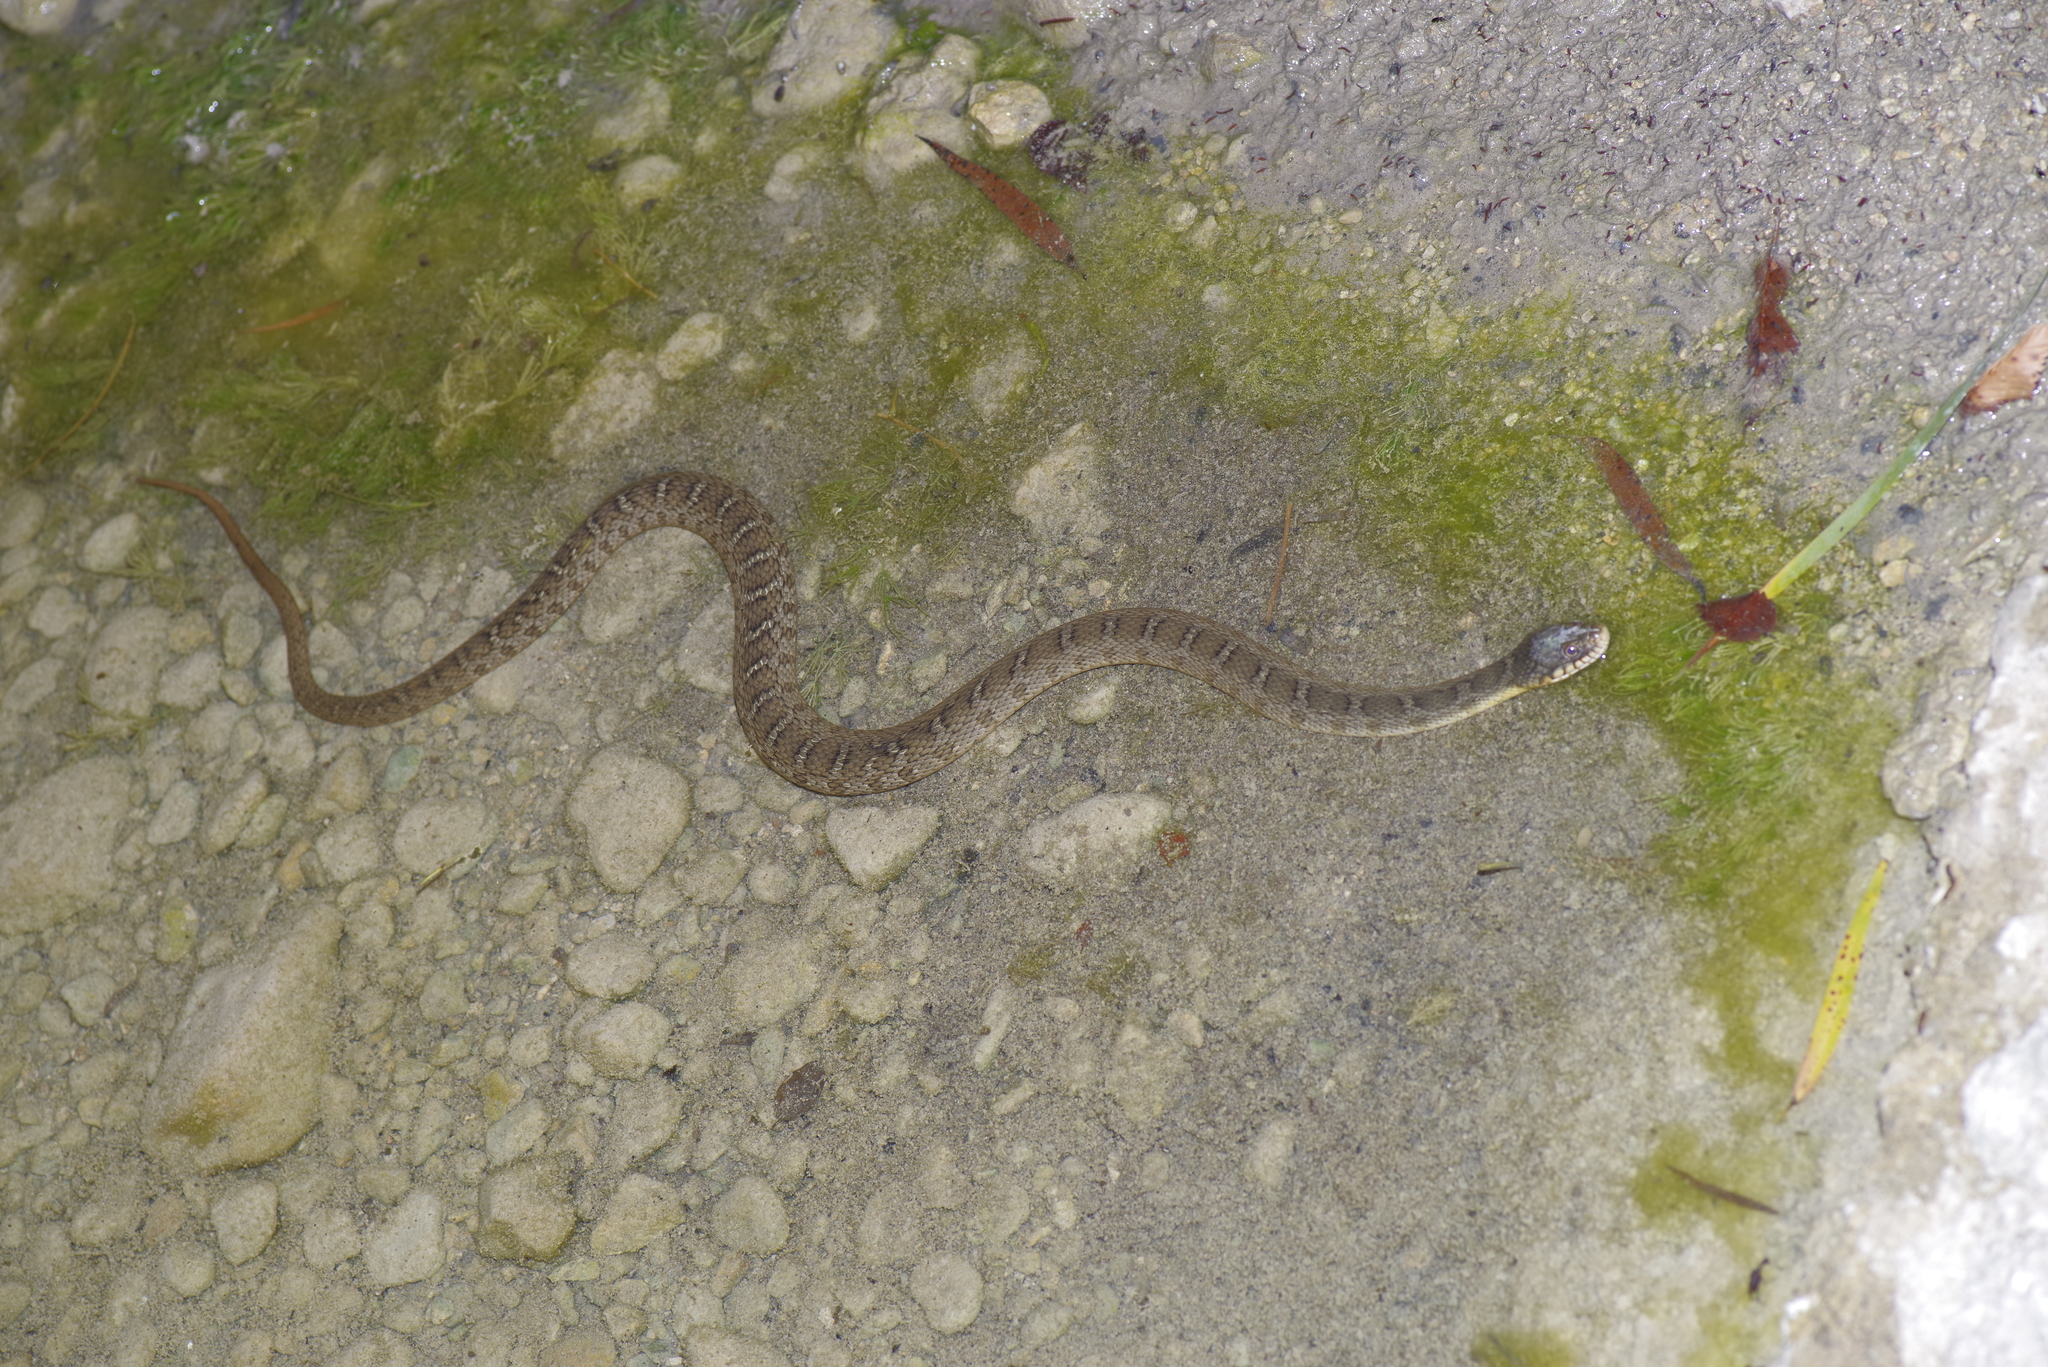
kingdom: Animalia
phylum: Chordata
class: Squamata
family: Colubridae
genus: Nerodia
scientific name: Nerodia erythrogaster
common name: Plainbelly water snake
